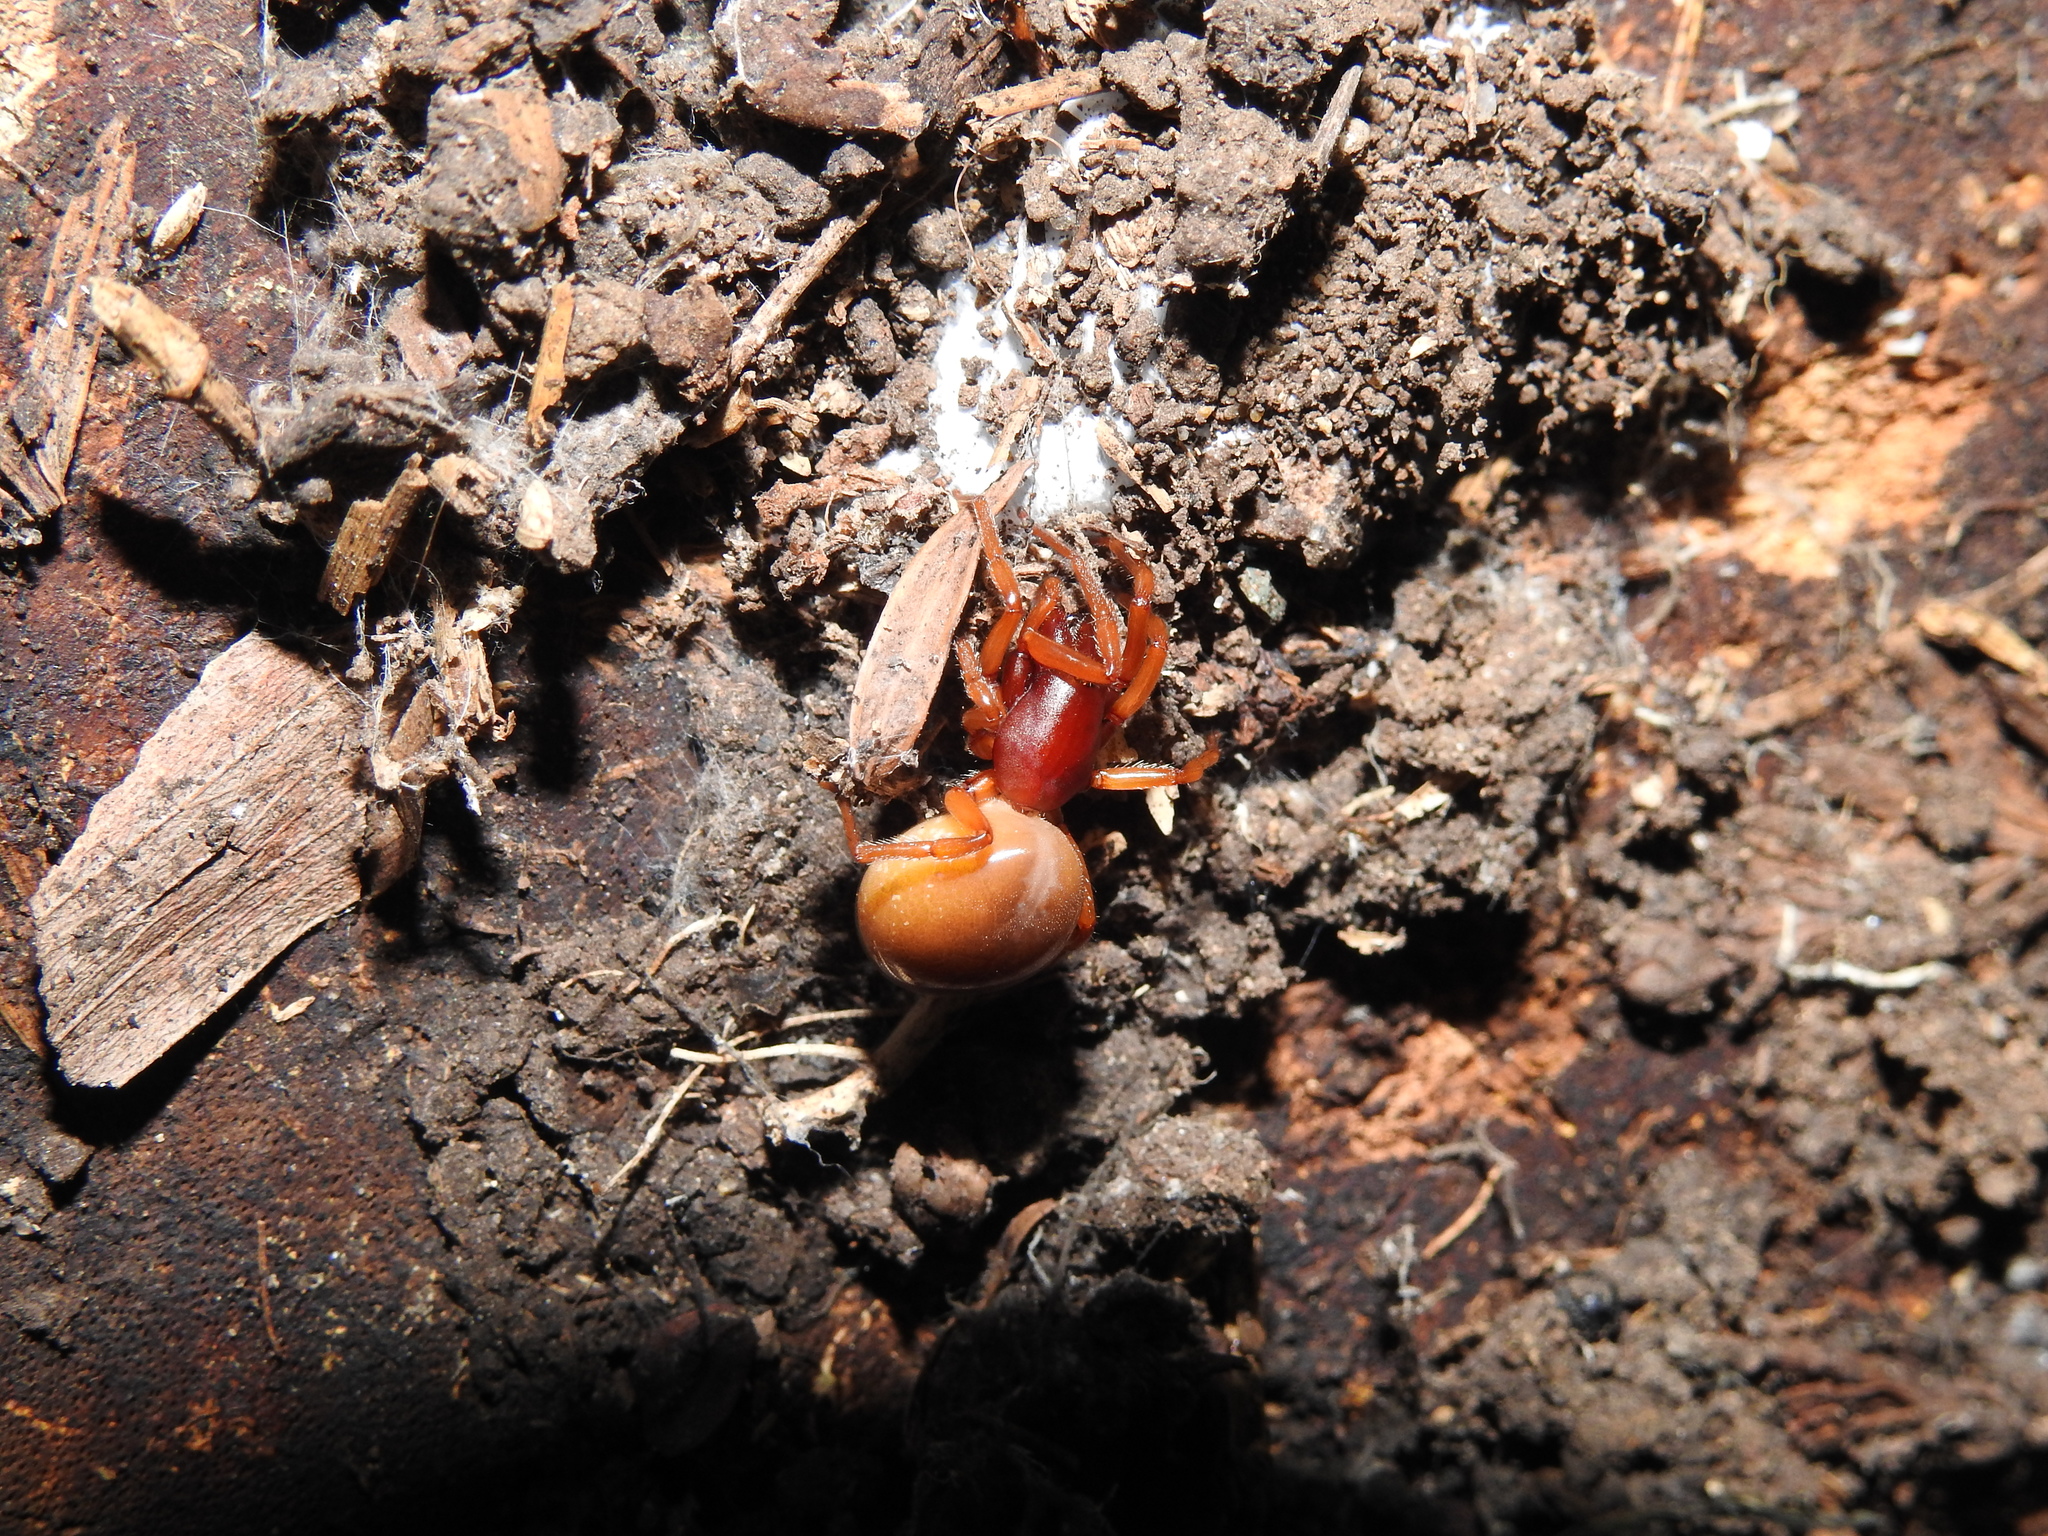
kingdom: Animalia
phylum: Arthropoda
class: Arachnida
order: Araneae
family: Dysderidae
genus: Dysdera
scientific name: Dysdera crocata
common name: Woodlouse spider
